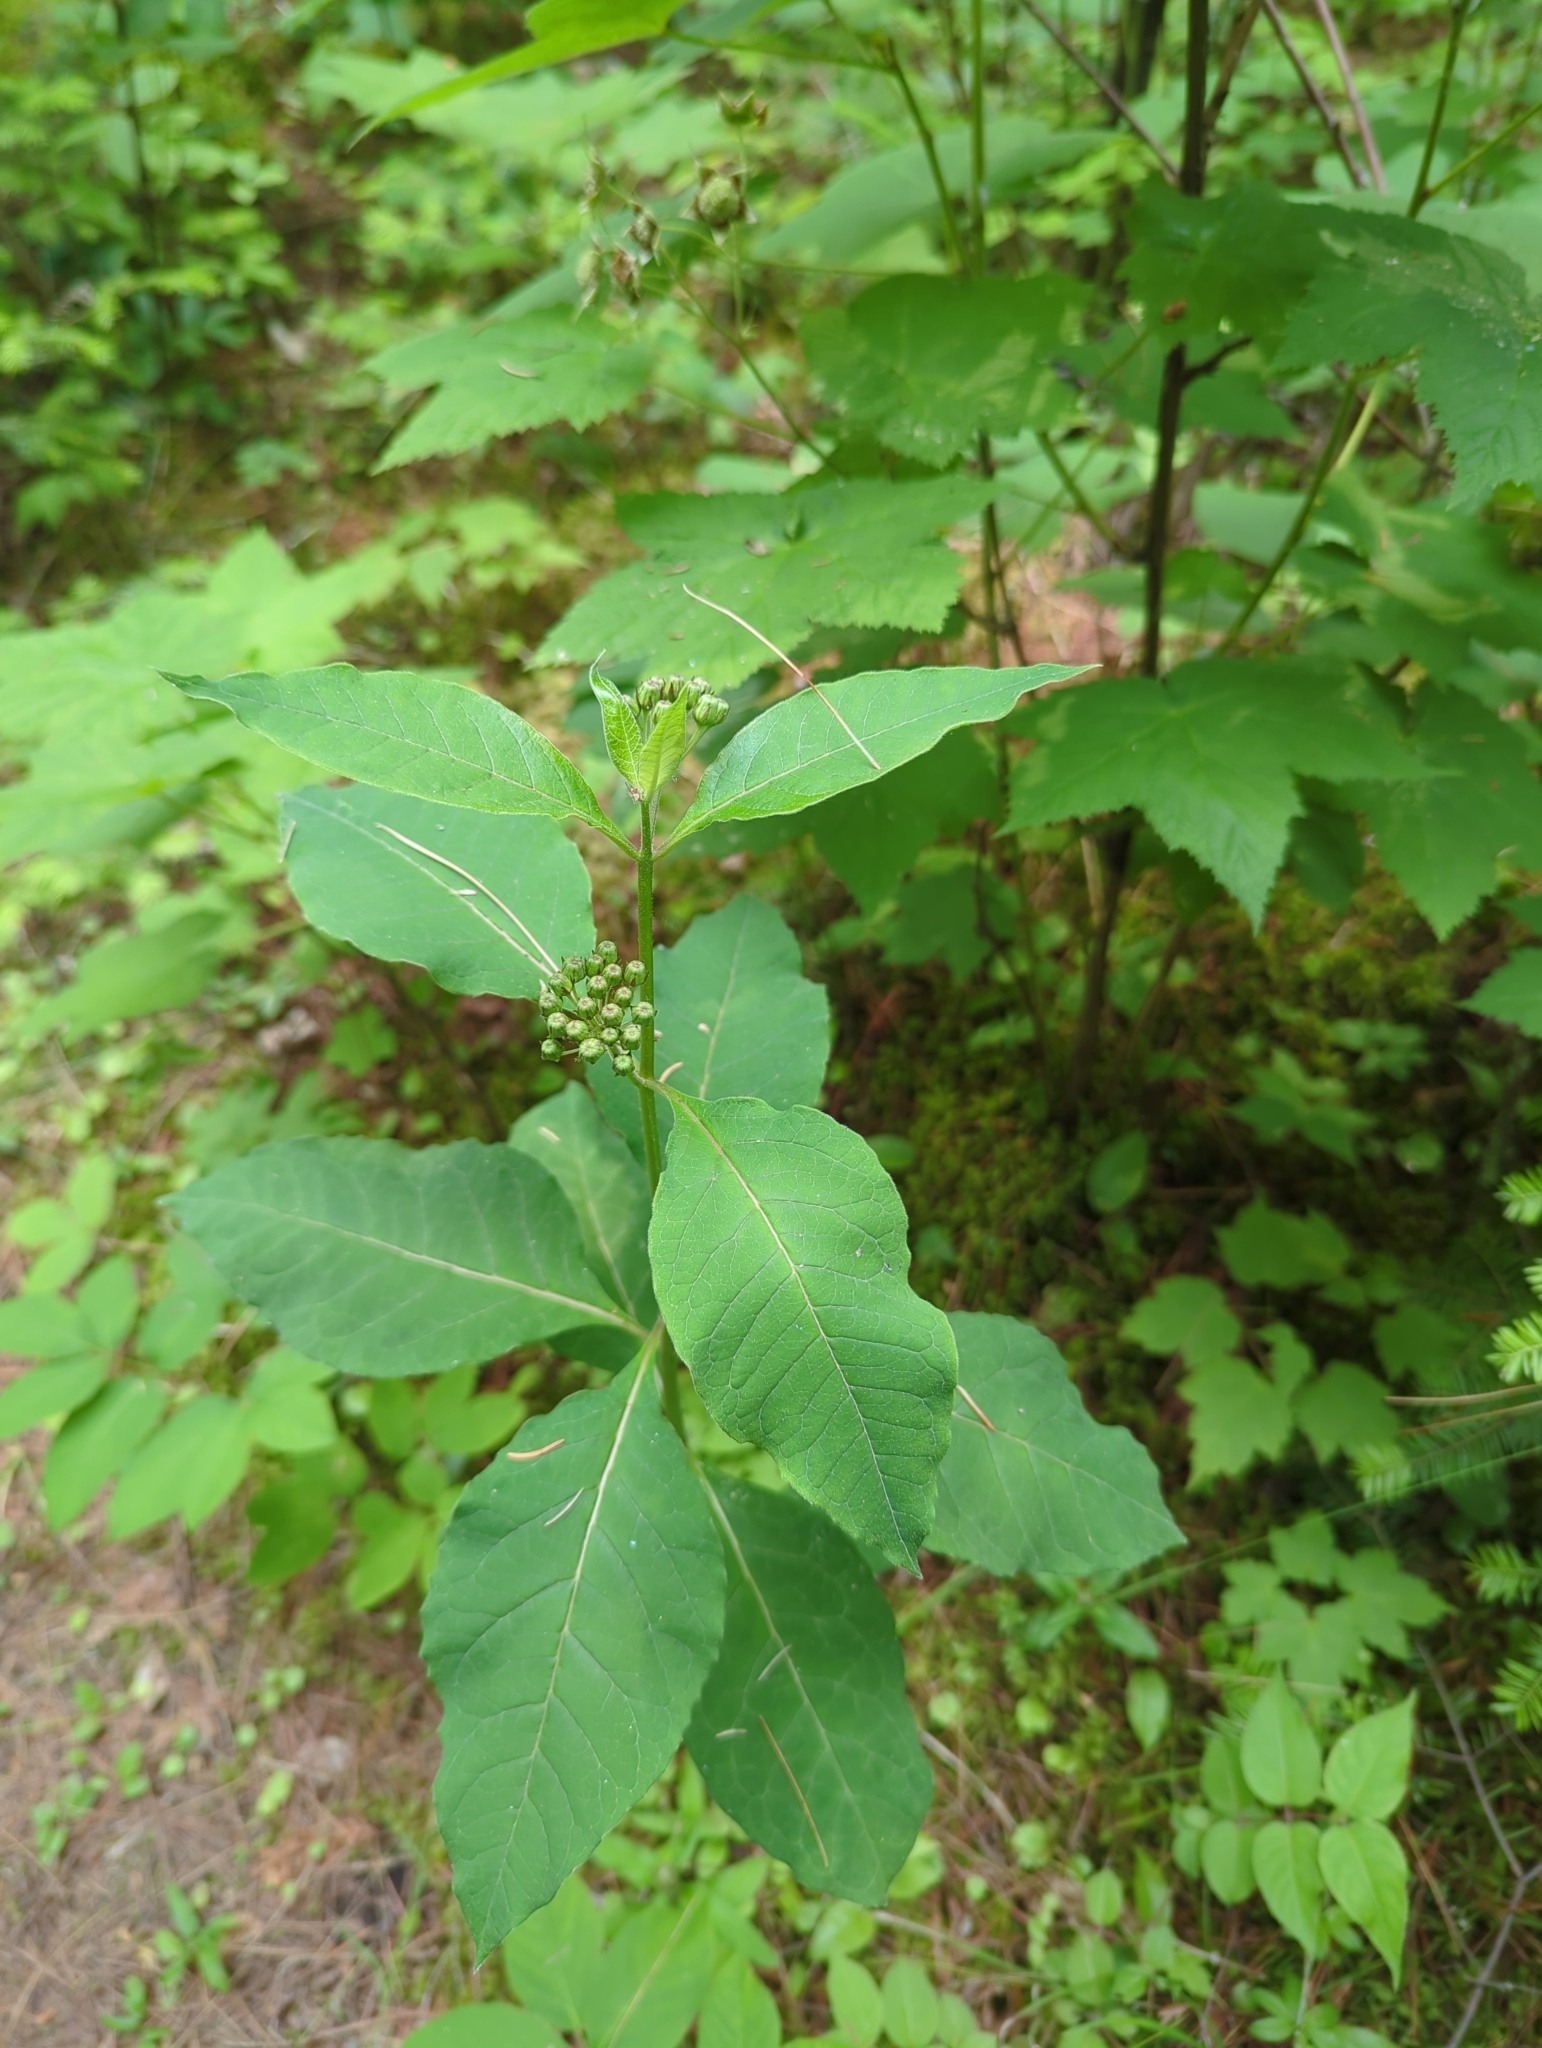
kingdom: Plantae
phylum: Tracheophyta
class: Magnoliopsida
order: Gentianales
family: Apocynaceae
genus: Asclepias
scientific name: Asclepias exaltata
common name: Poke milkweed
